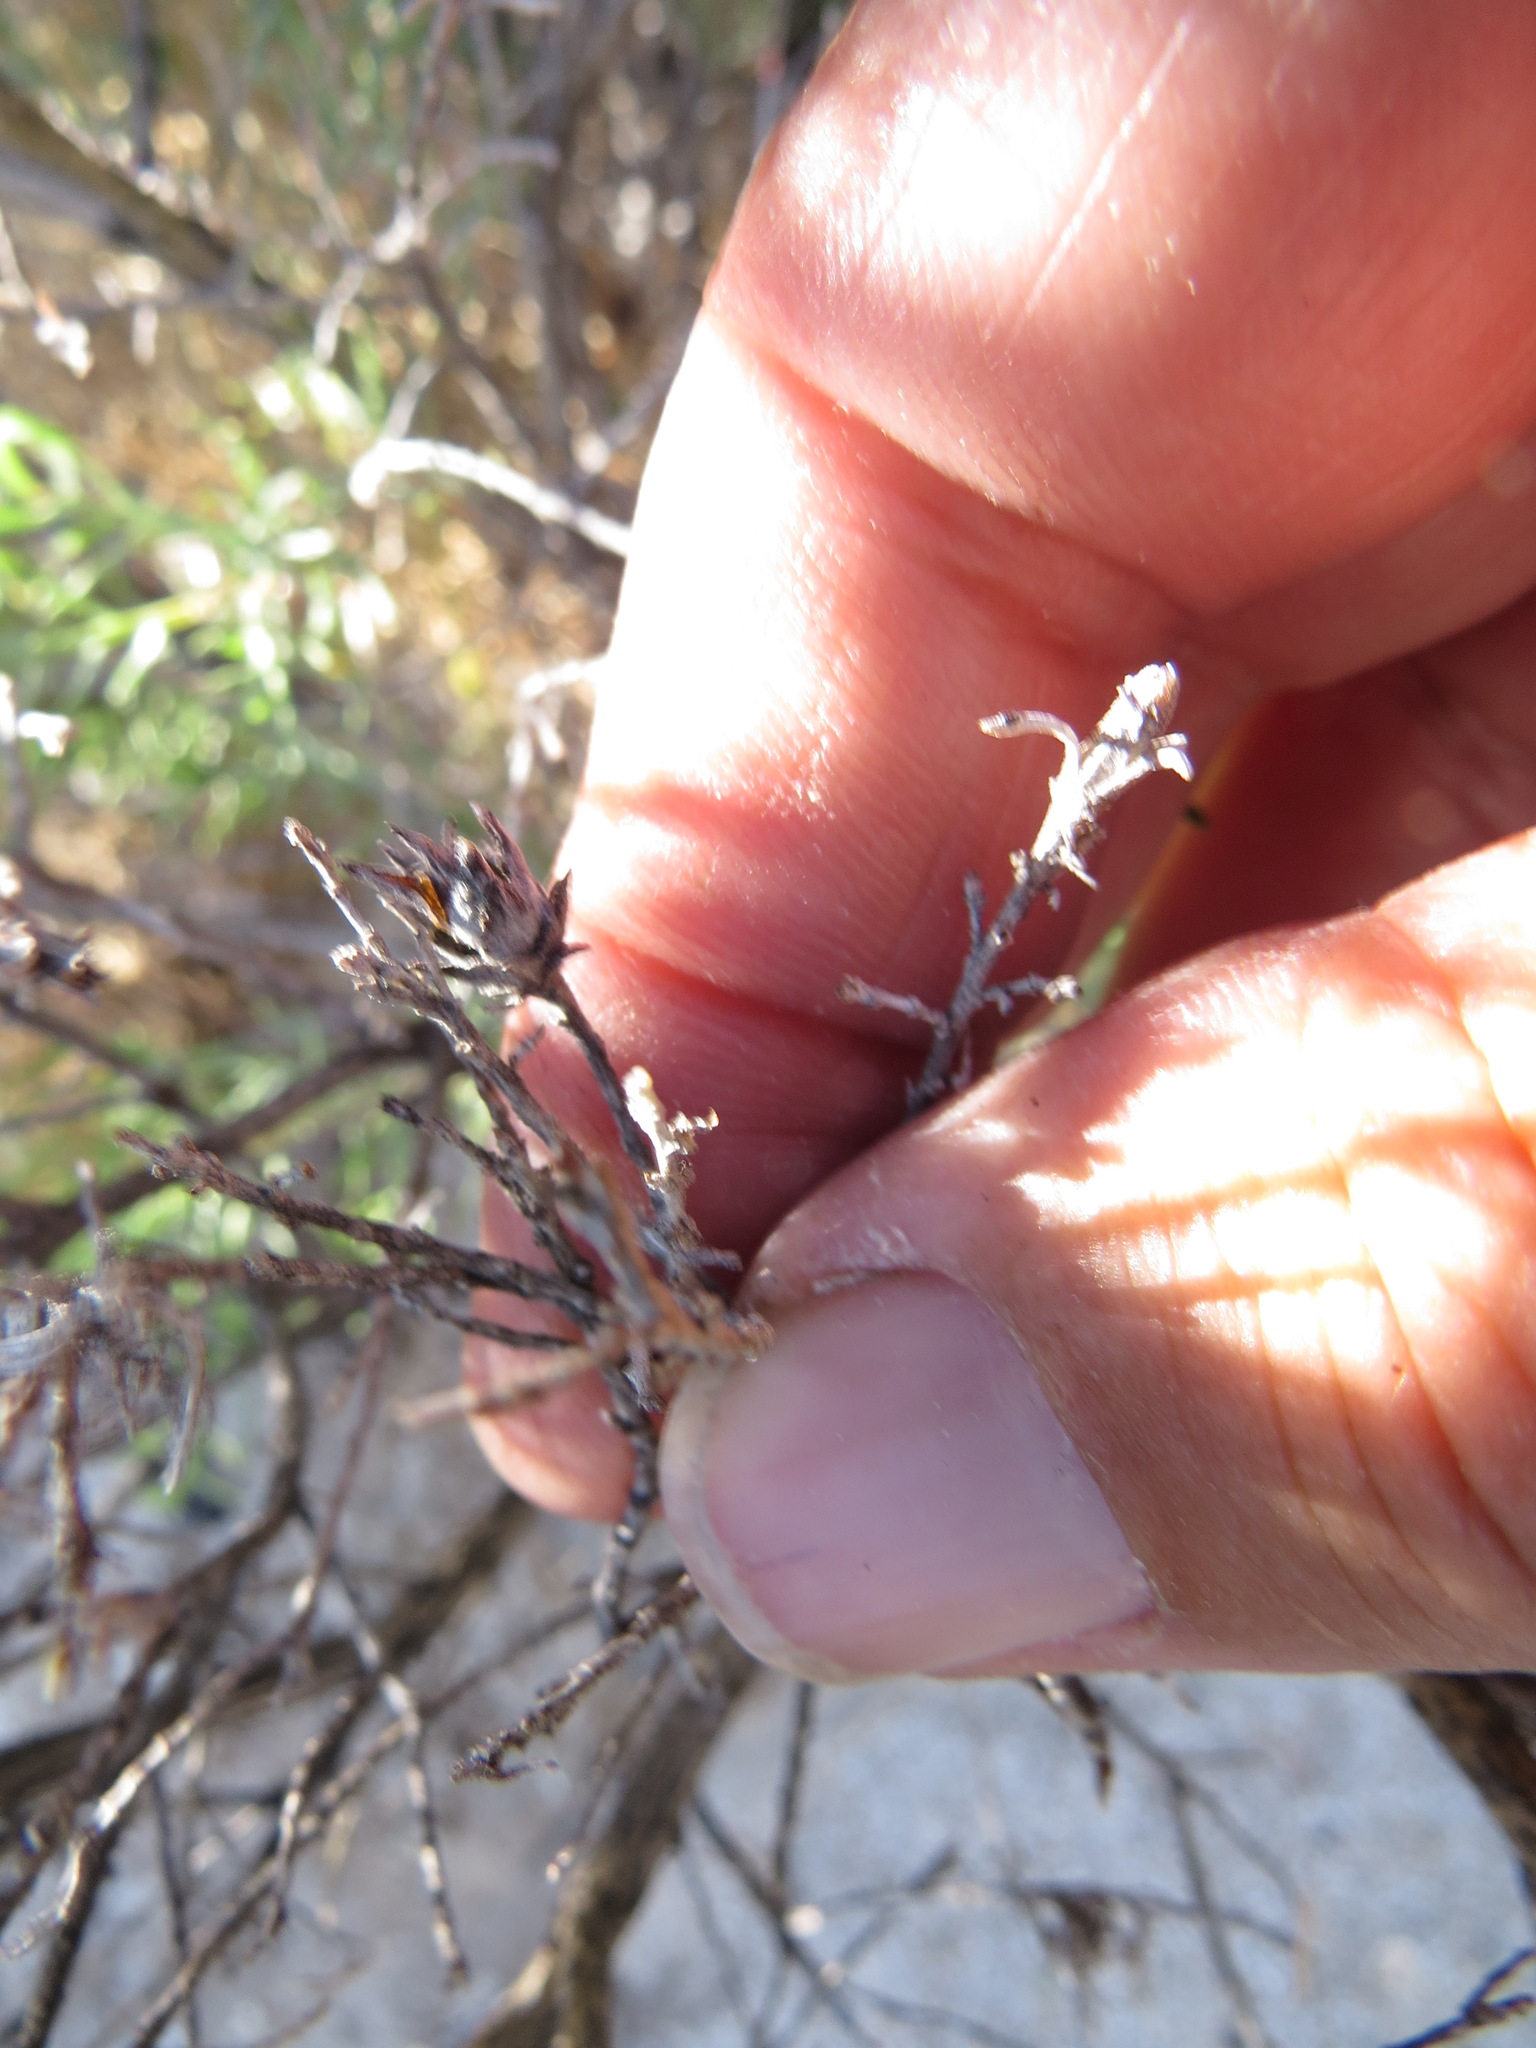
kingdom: Animalia
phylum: Arthropoda
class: Insecta
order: Diptera
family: Cecidomyiidae
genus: Rhopalomyia
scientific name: Rhopalomyia ericameriae
